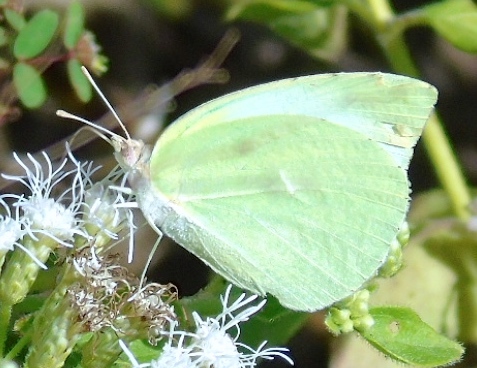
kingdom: Animalia
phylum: Arthropoda
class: Insecta
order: Lepidoptera
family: Pieridae
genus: Kricogonia
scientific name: Kricogonia lyside
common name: Guayacan sulphur,
